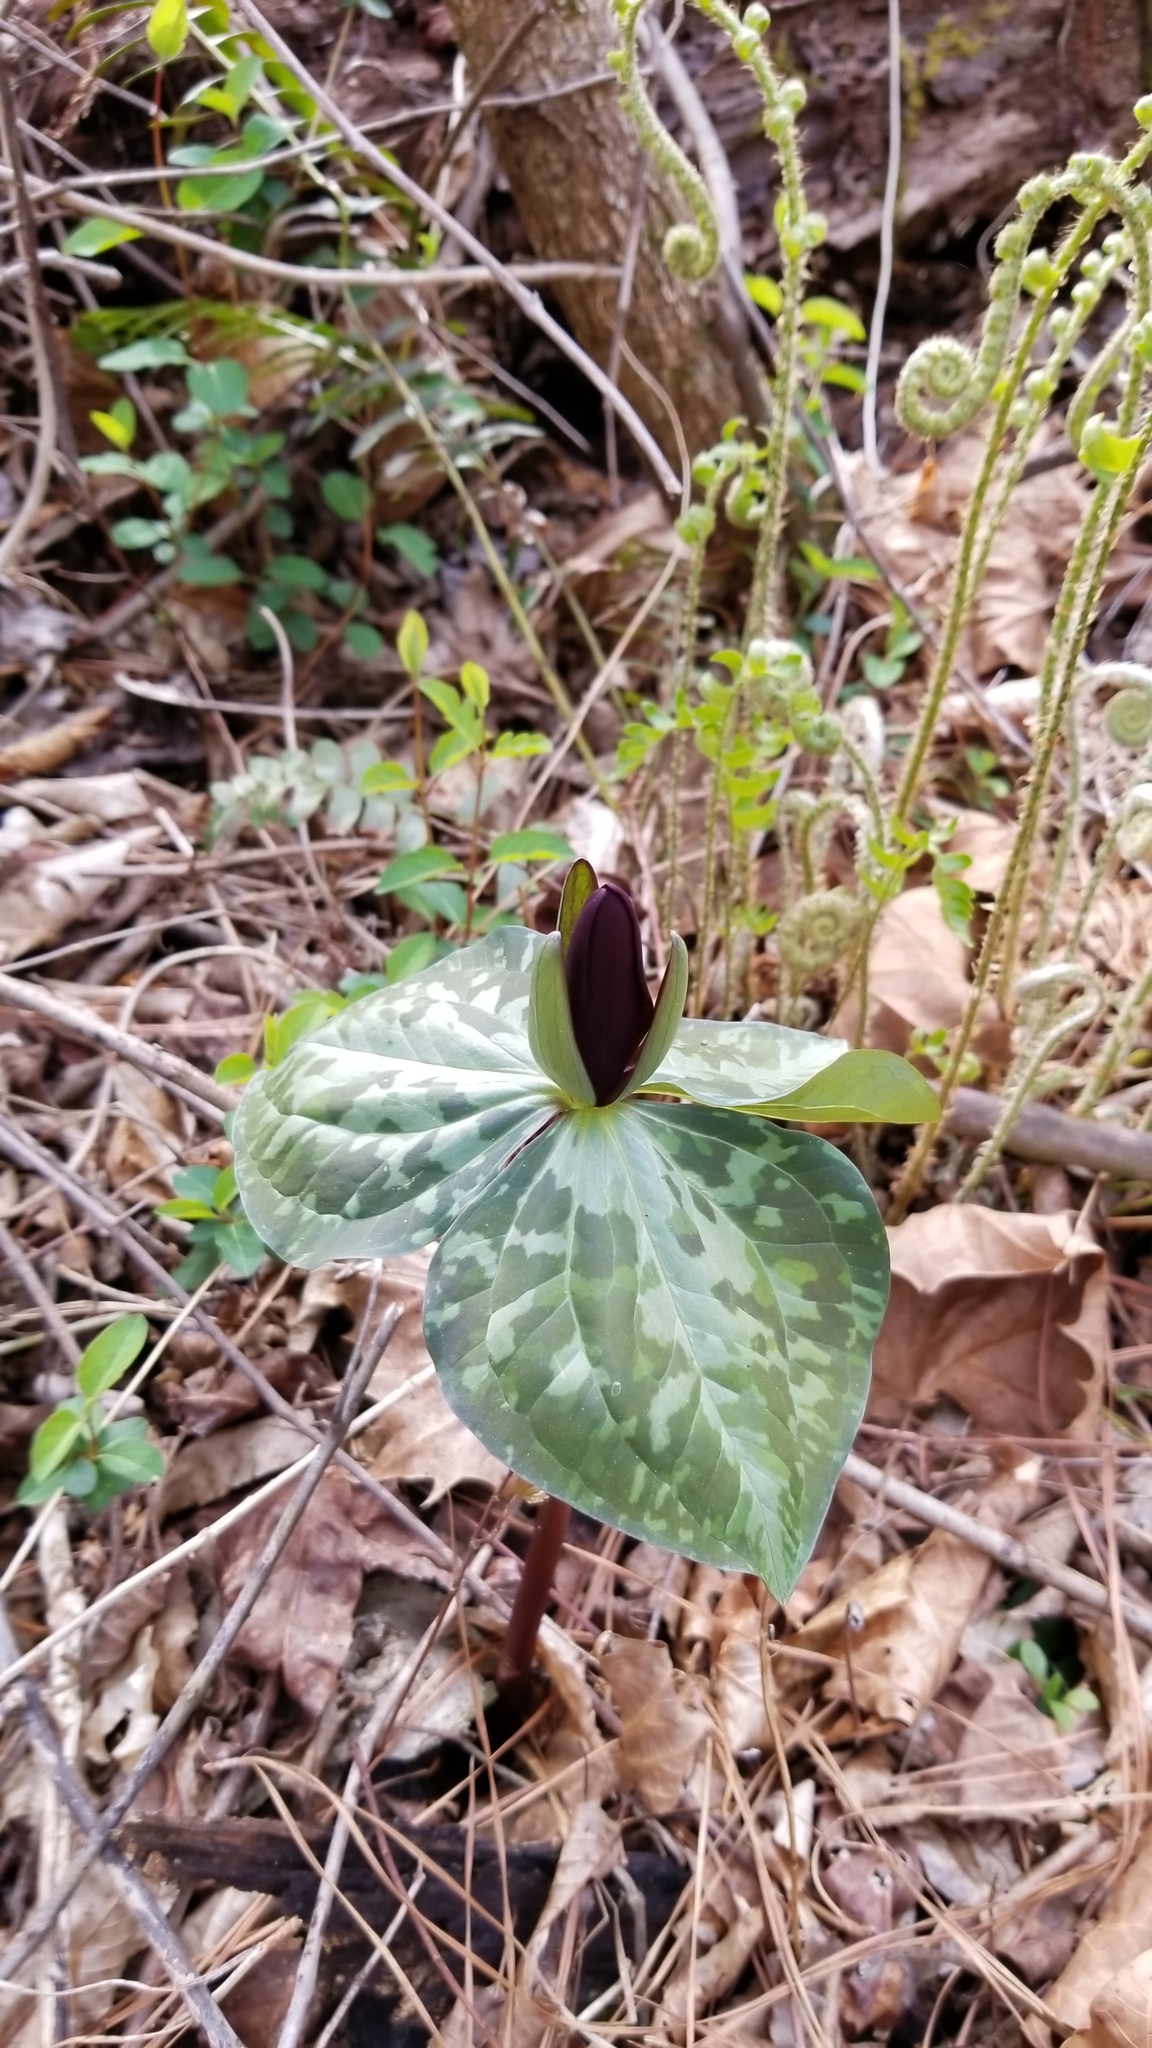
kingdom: Plantae
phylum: Tracheophyta
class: Liliopsida
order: Liliales
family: Melanthiaceae
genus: Trillium
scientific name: Trillium cuneatum
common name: Cuneate trillium
